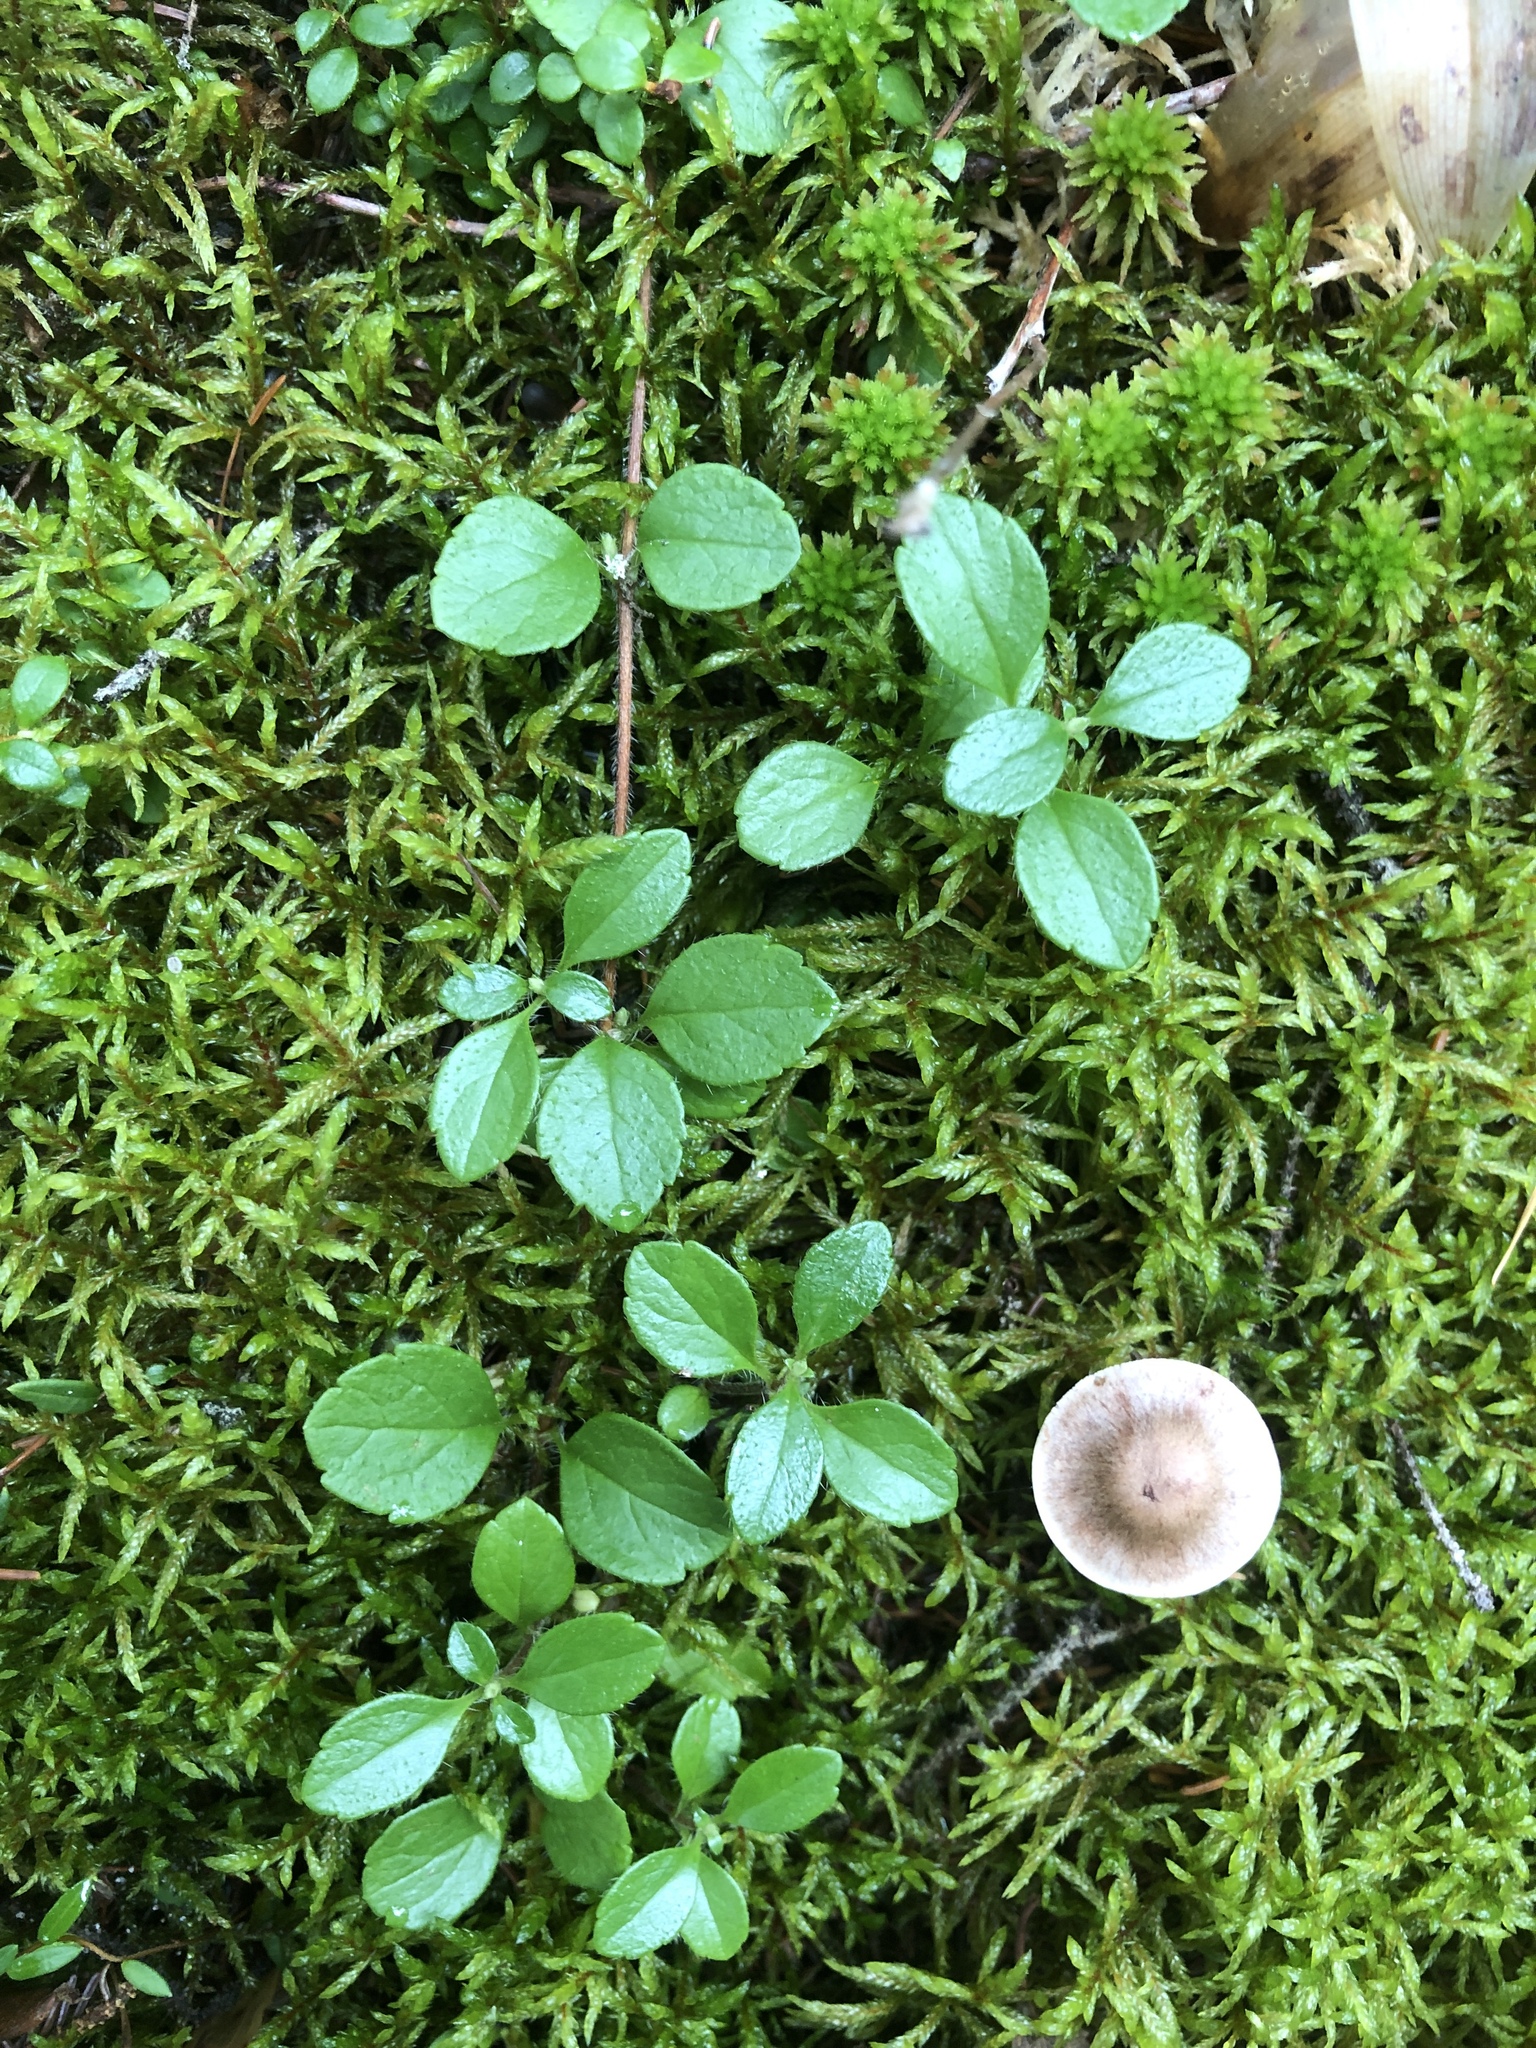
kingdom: Plantae
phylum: Tracheophyta
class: Magnoliopsida
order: Dipsacales
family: Caprifoliaceae
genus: Linnaea
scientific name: Linnaea borealis
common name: Twinflower
